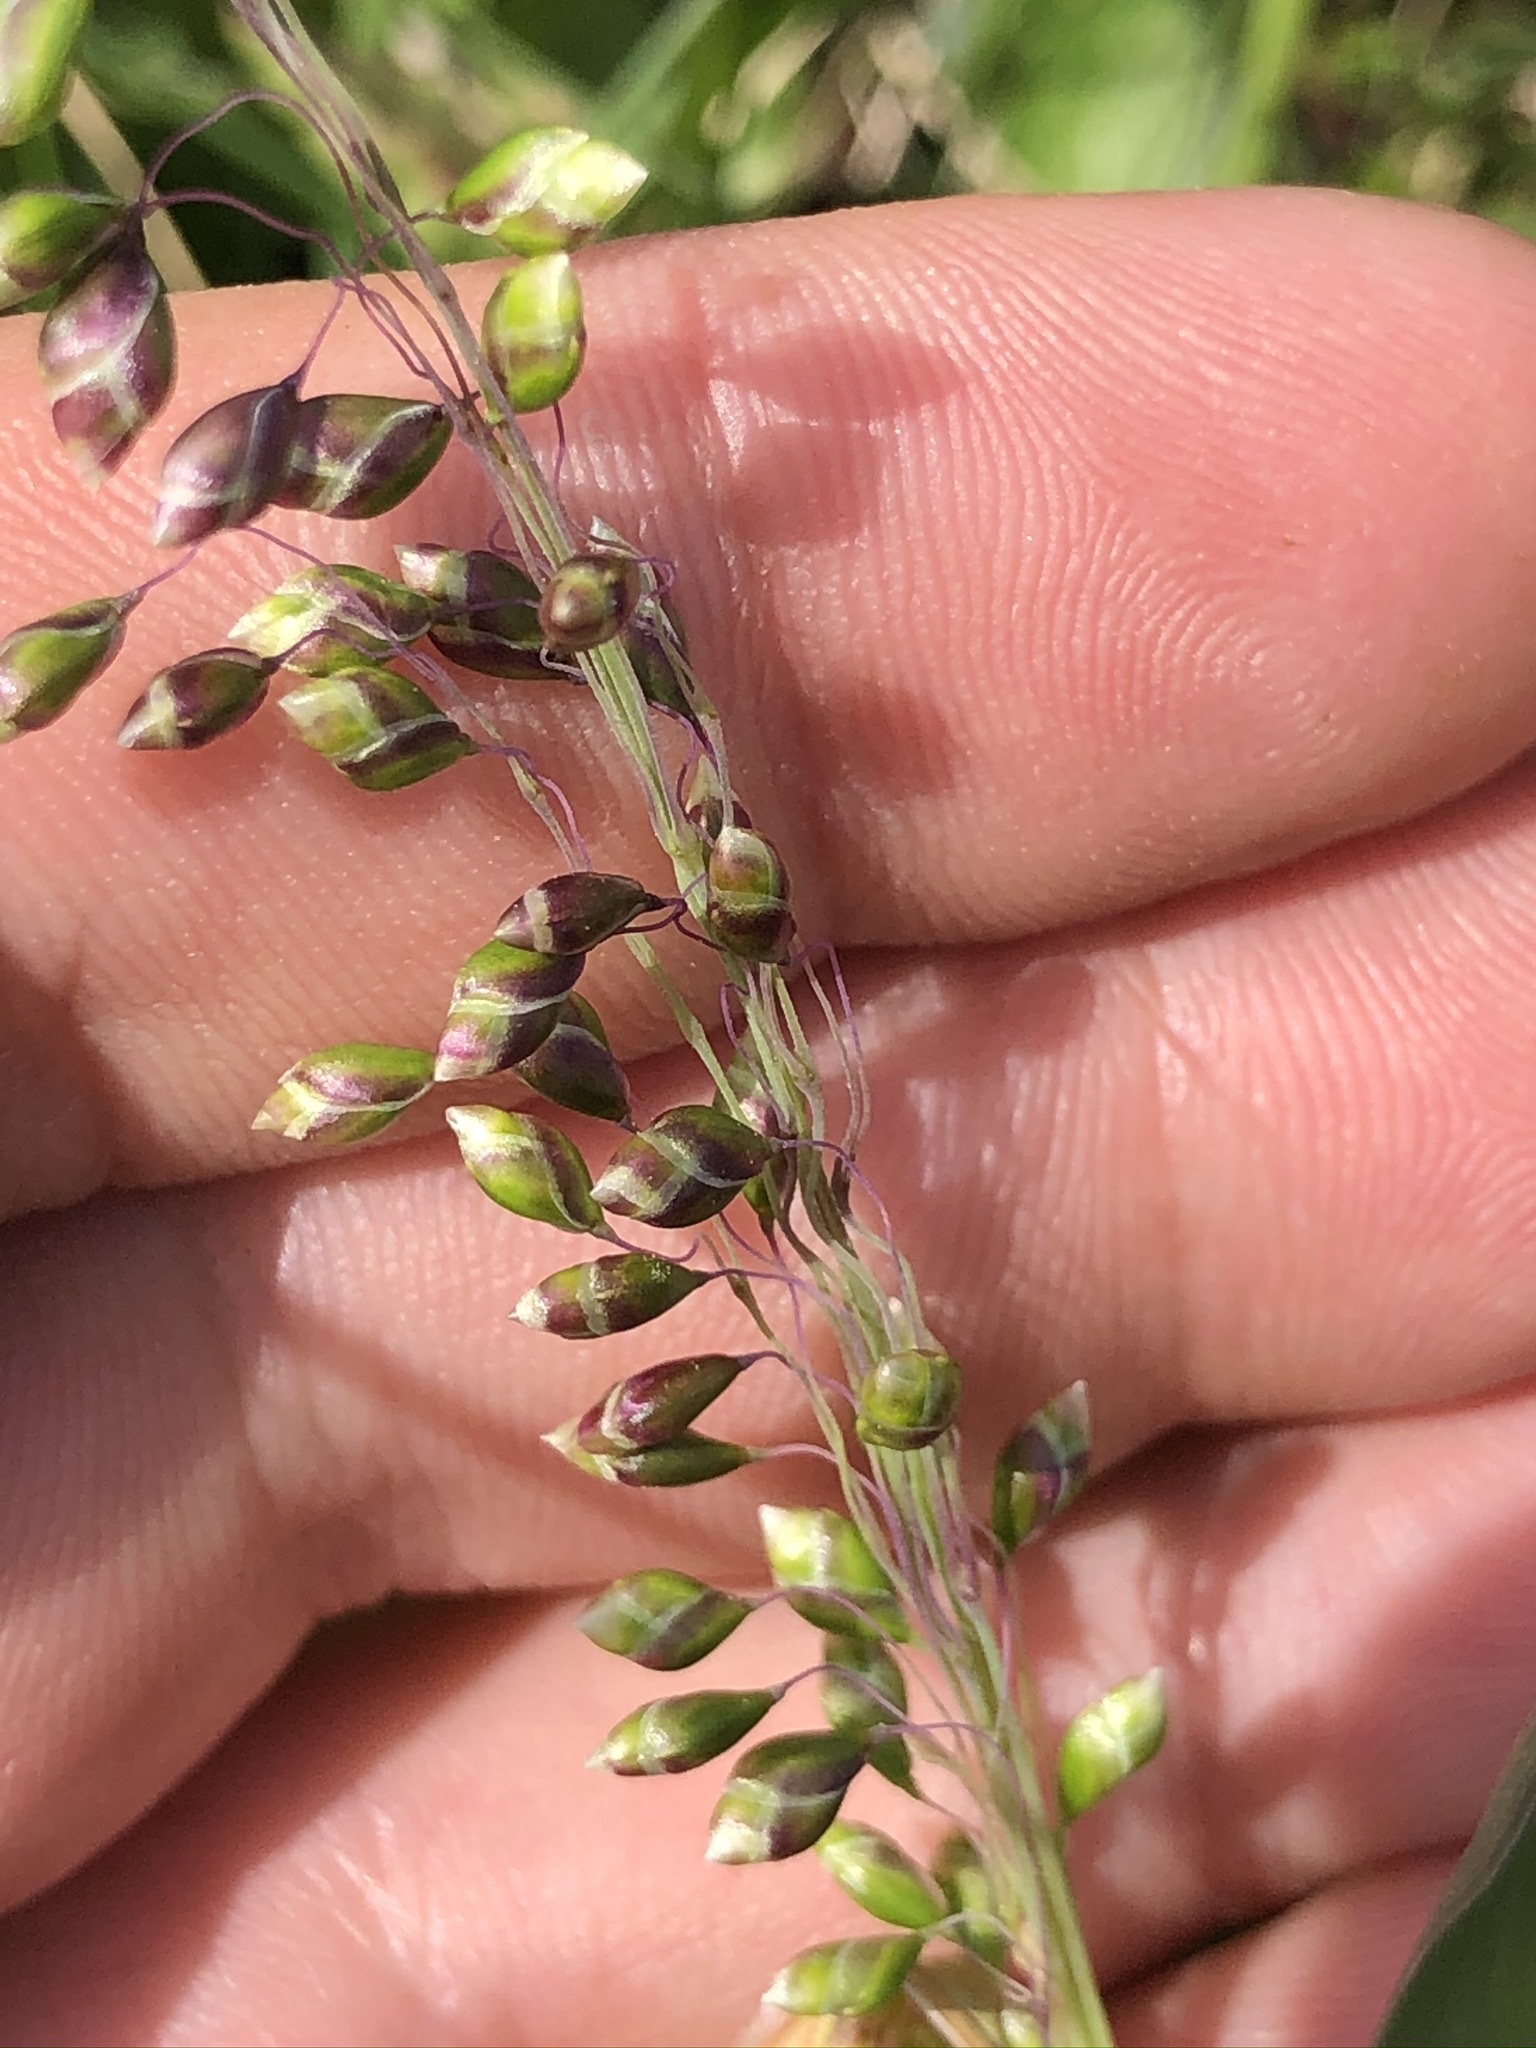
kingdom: Plantae
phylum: Tracheophyta
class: Liliopsida
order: Poales
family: Poaceae
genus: Briza
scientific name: Briza media
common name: Quaking grass
